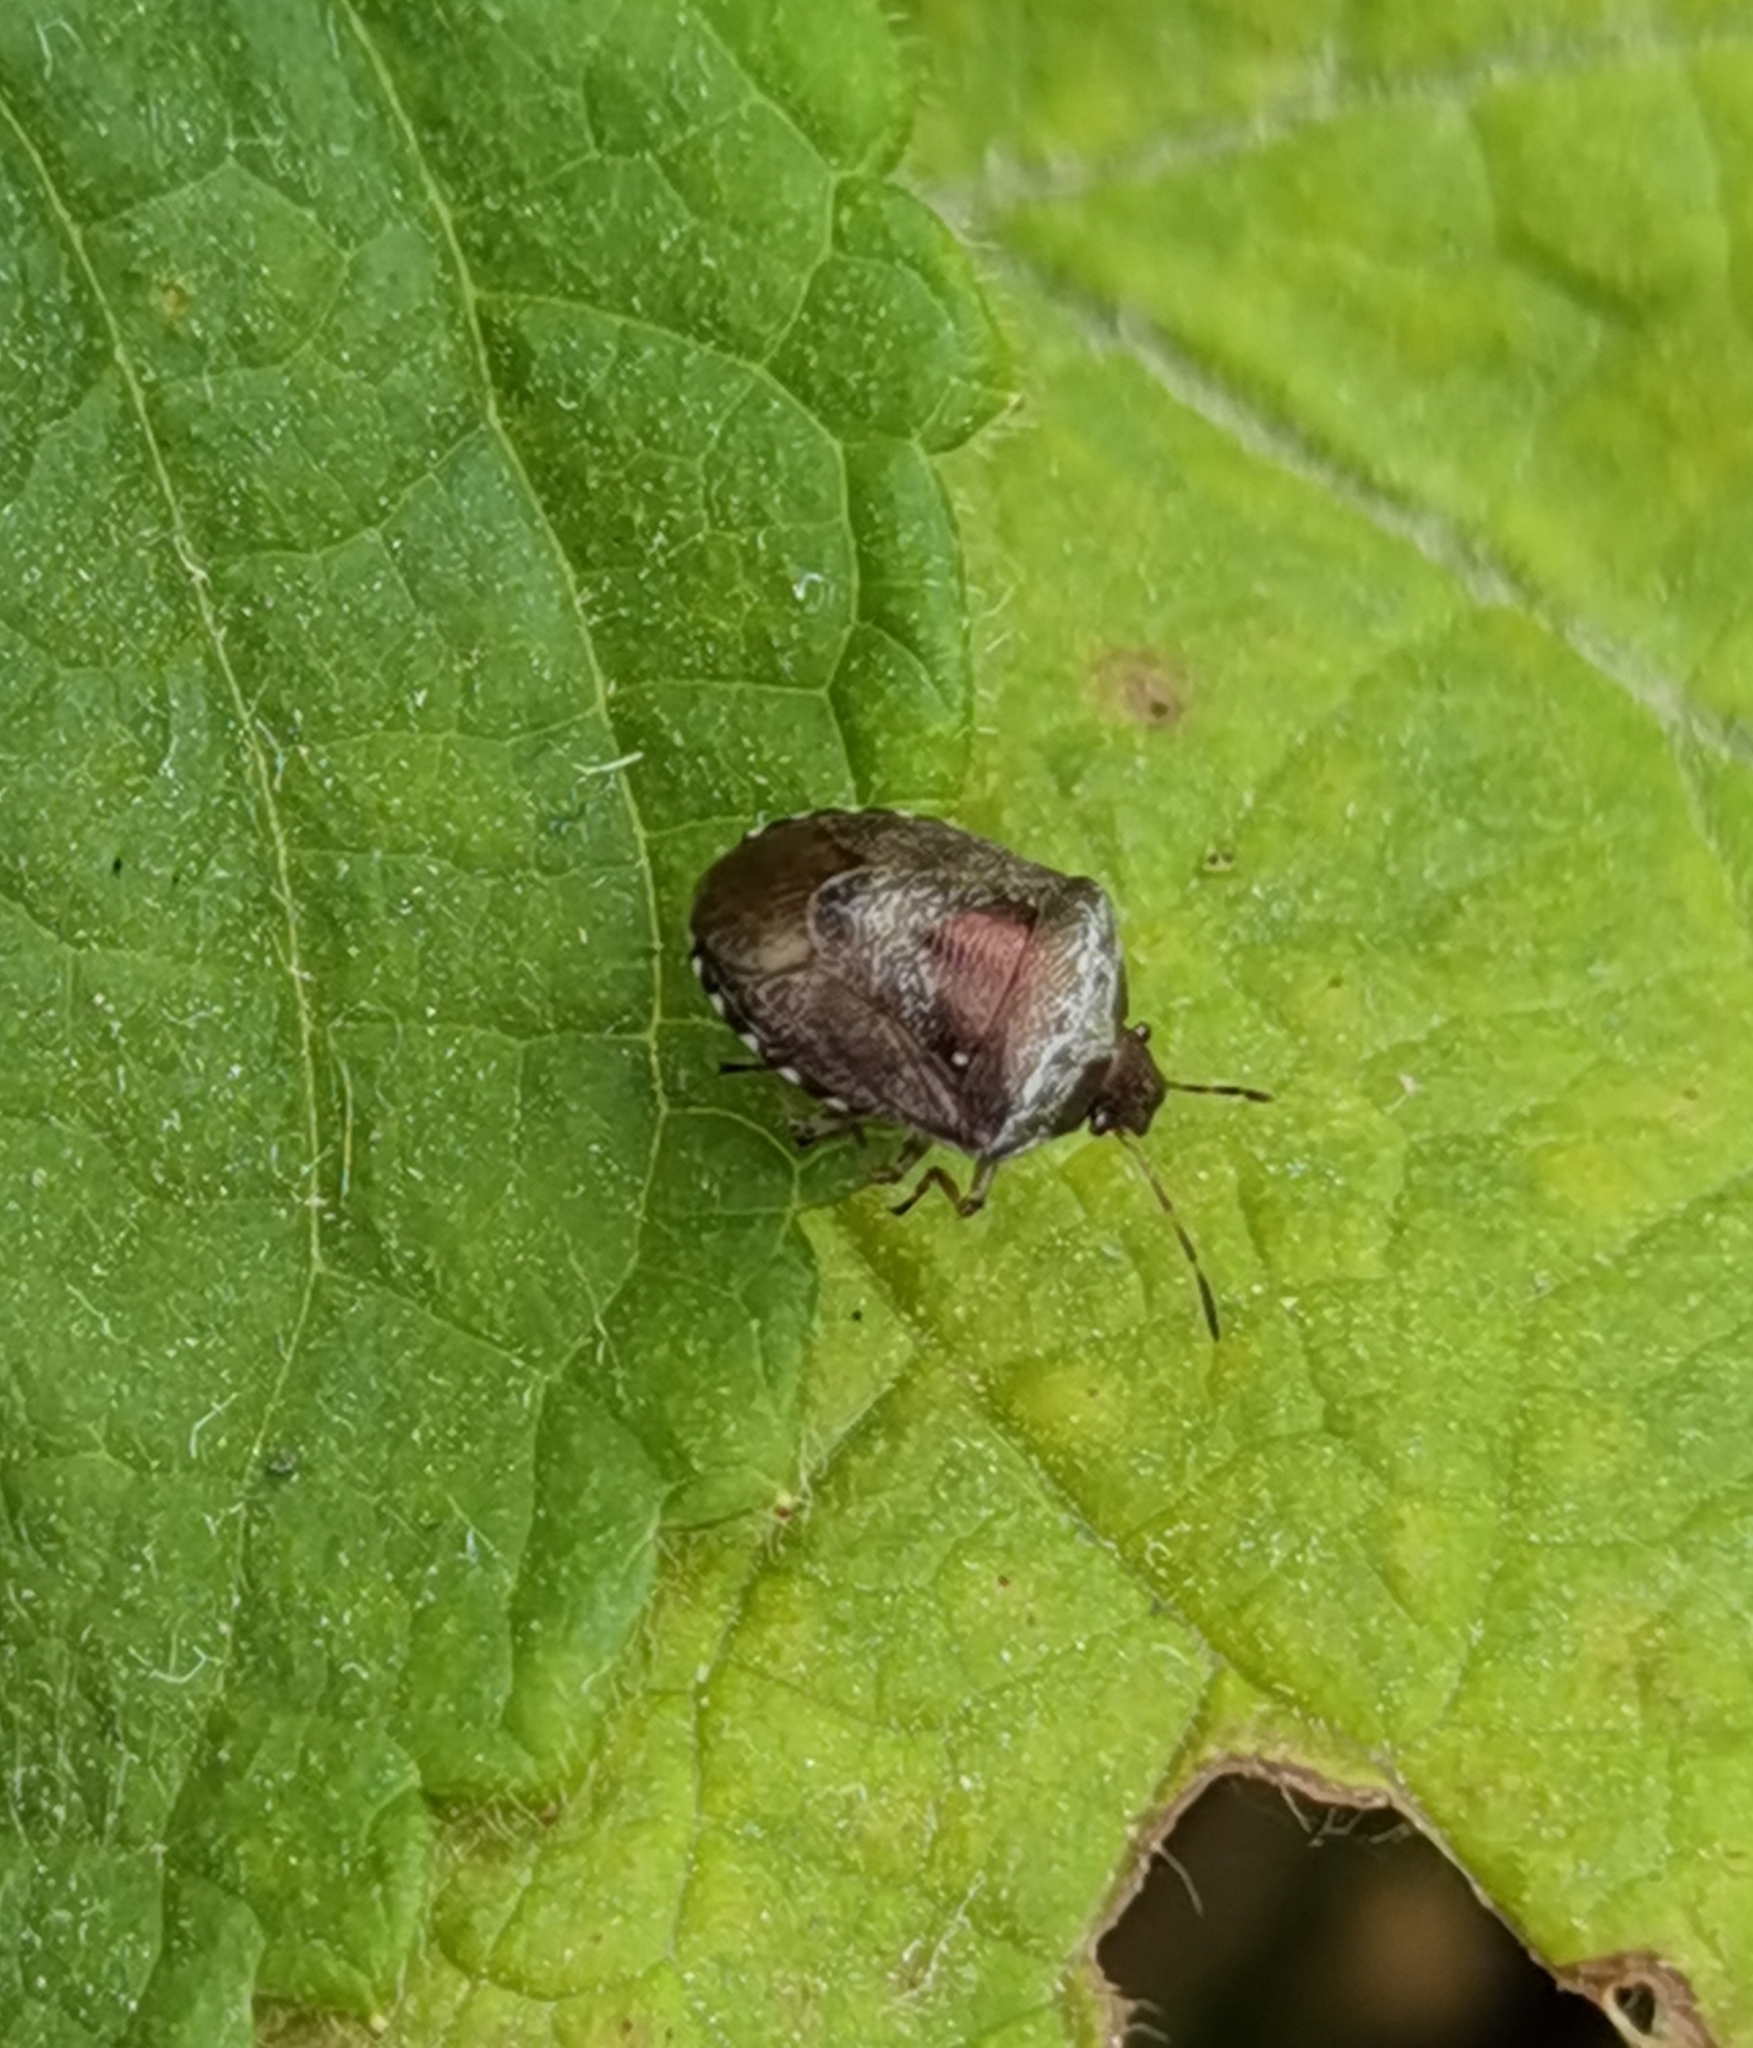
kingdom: Animalia
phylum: Arthropoda
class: Insecta
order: Hemiptera
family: Pentatomidae
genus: Eysarcoris
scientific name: Eysarcoris venustissimus
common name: Woundwort shieldbug
